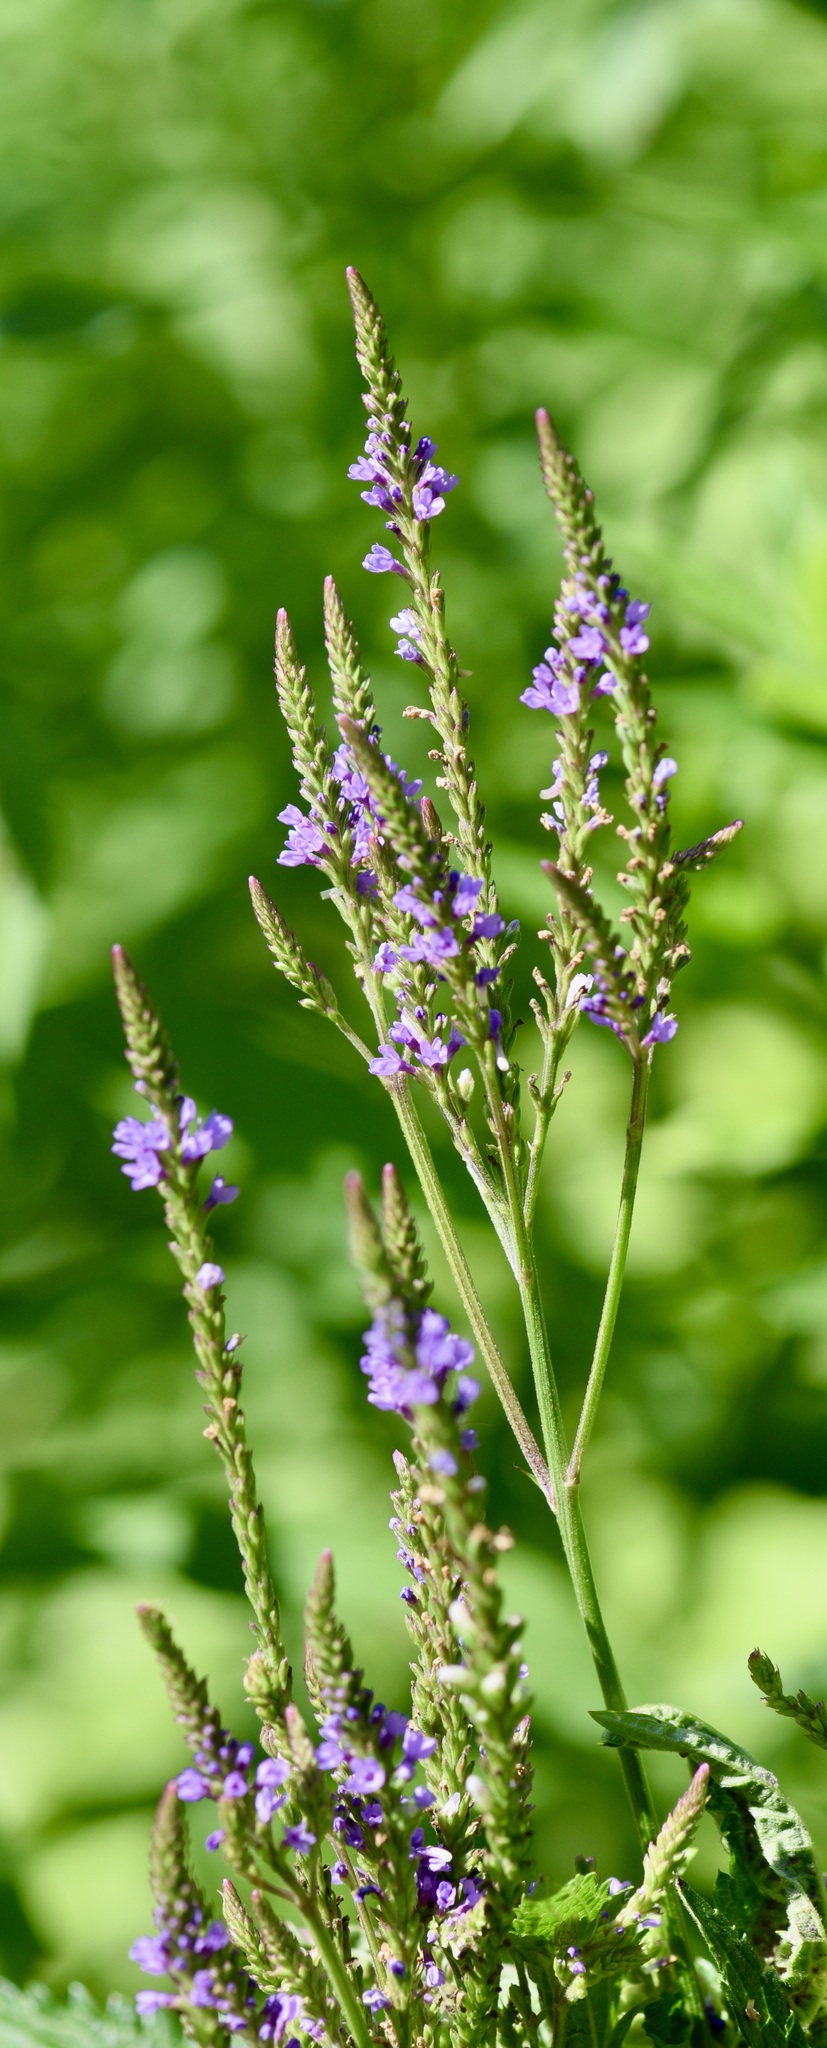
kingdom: Plantae
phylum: Tracheophyta
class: Magnoliopsida
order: Lamiales
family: Verbenaceae
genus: Verbena
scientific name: Verbena hastata
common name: American blue vervain
